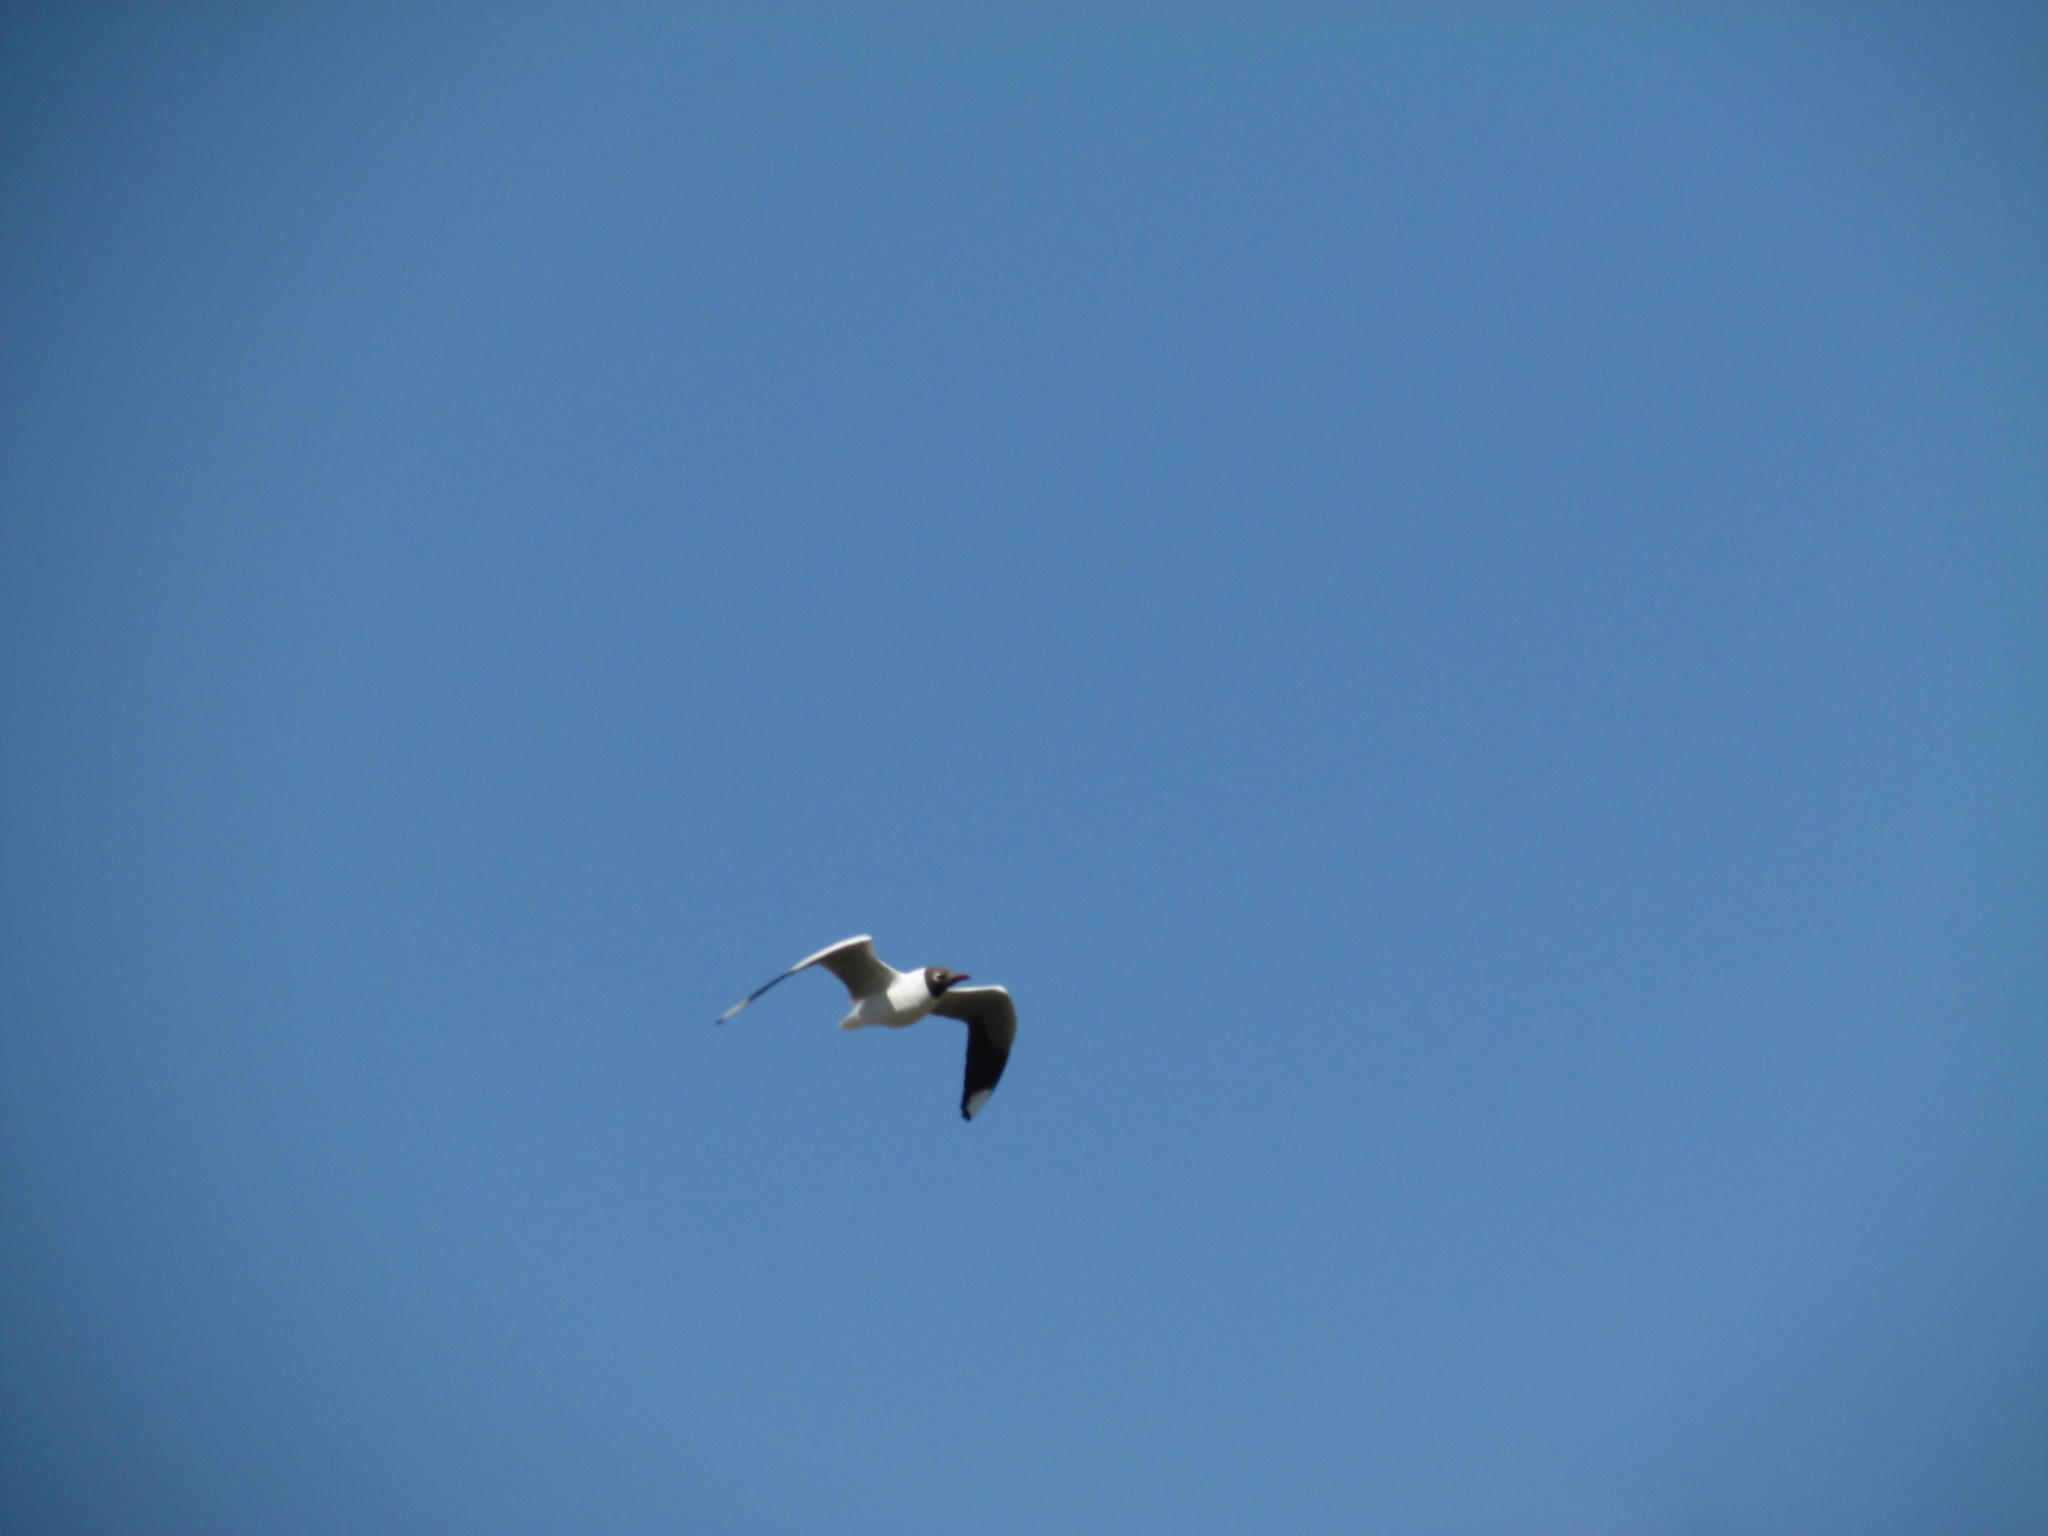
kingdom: Animalia
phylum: Chordata
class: Aves
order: Charadriiformes
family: Laridae
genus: Chroicocephalus
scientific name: Chroicocephalus maculipennis
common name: Brown-hooded gull
